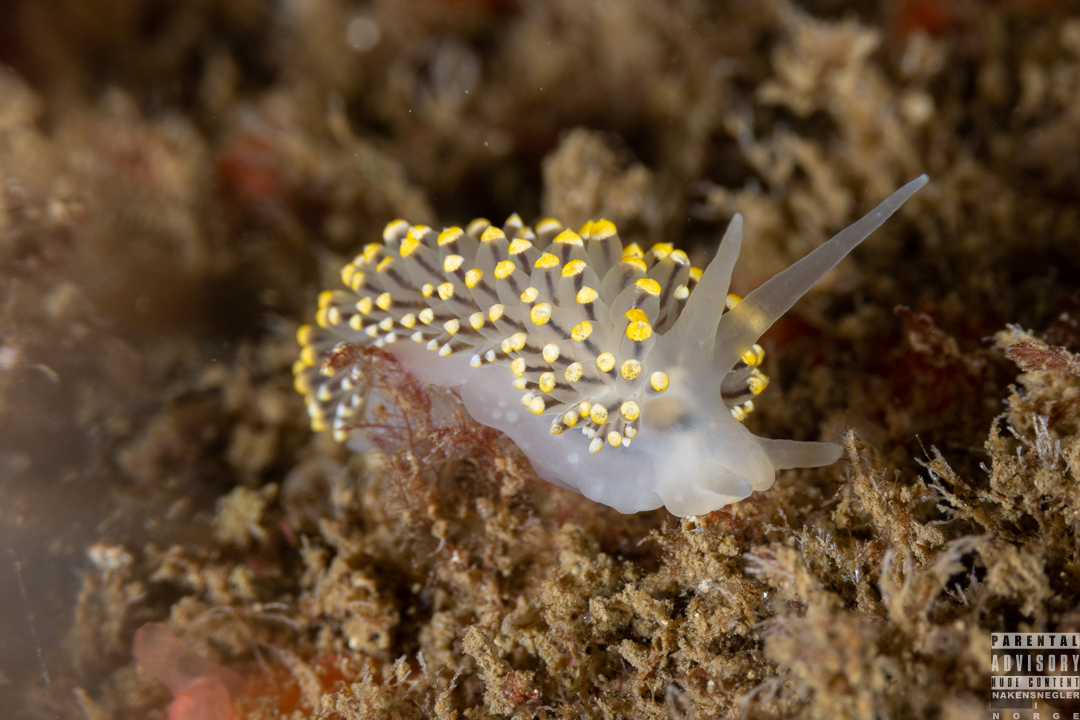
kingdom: Animalia
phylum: Mollusca
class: Gastropoda
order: Nudibranchia
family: Eubranchidae
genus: Eubranchus
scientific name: Eubranchus tricolor
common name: Painted balloon aeolis
